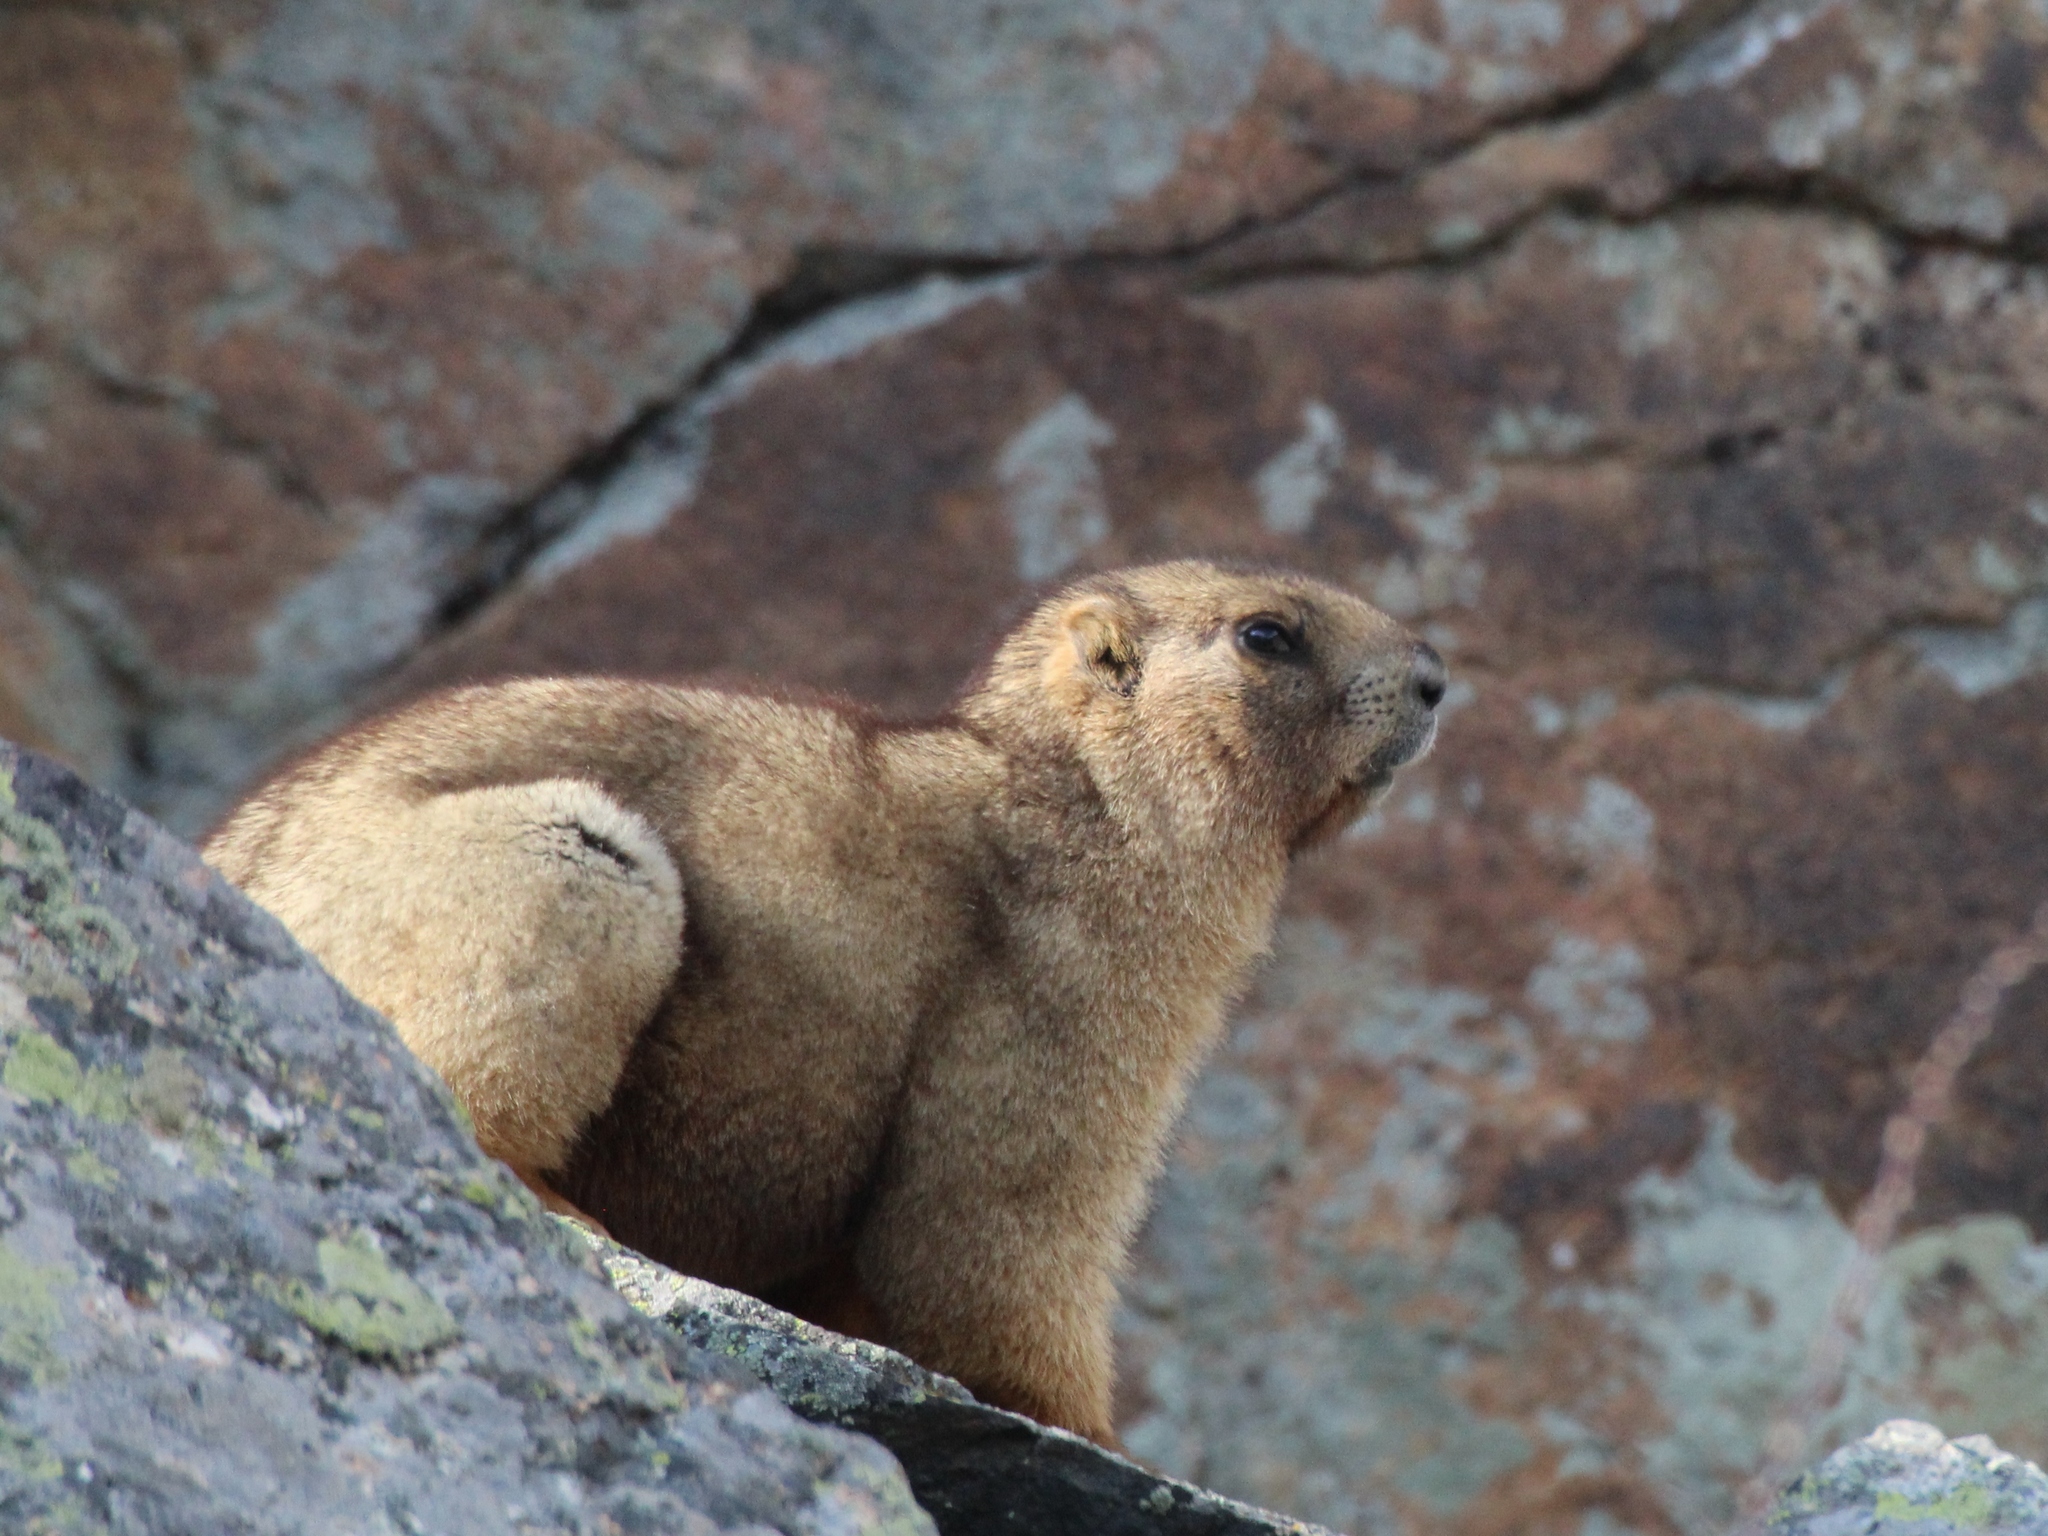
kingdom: Animalia
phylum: Chordata
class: Mammalia
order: Rodentia
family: Sciuridae
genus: Marmota
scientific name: Marmota baibacina
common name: Gray marmot
